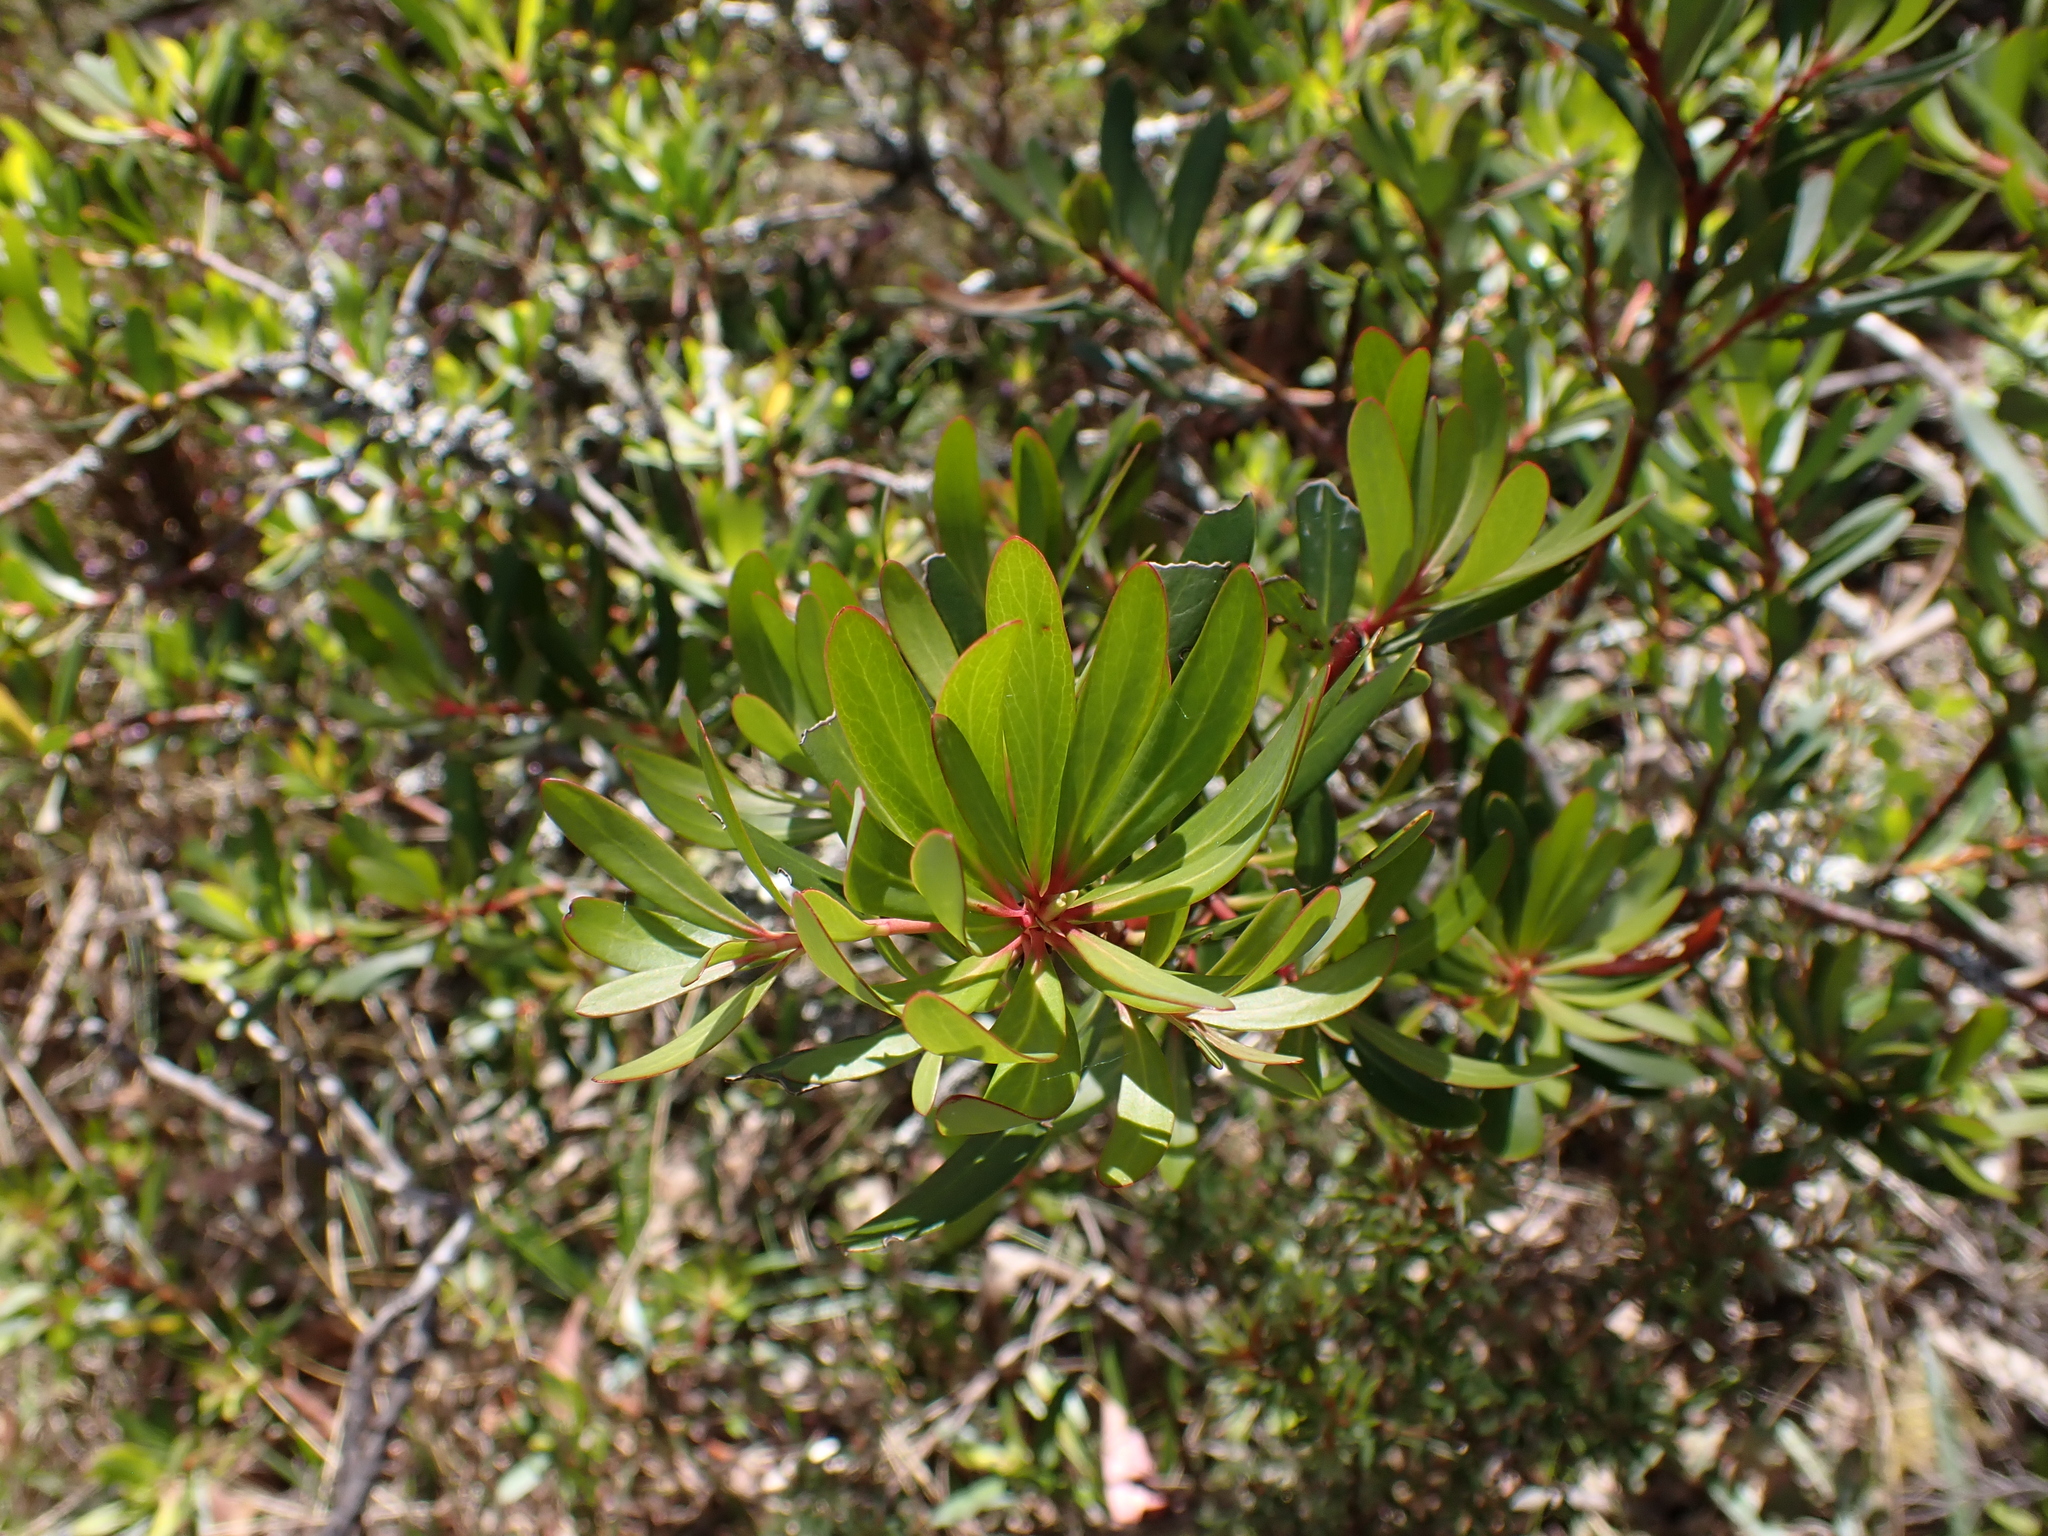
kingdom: Plantae
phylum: Tracheophyta
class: Magnoliopsida
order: Canellales
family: Winteraceae
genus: Drimys
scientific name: Drimys xerophila
